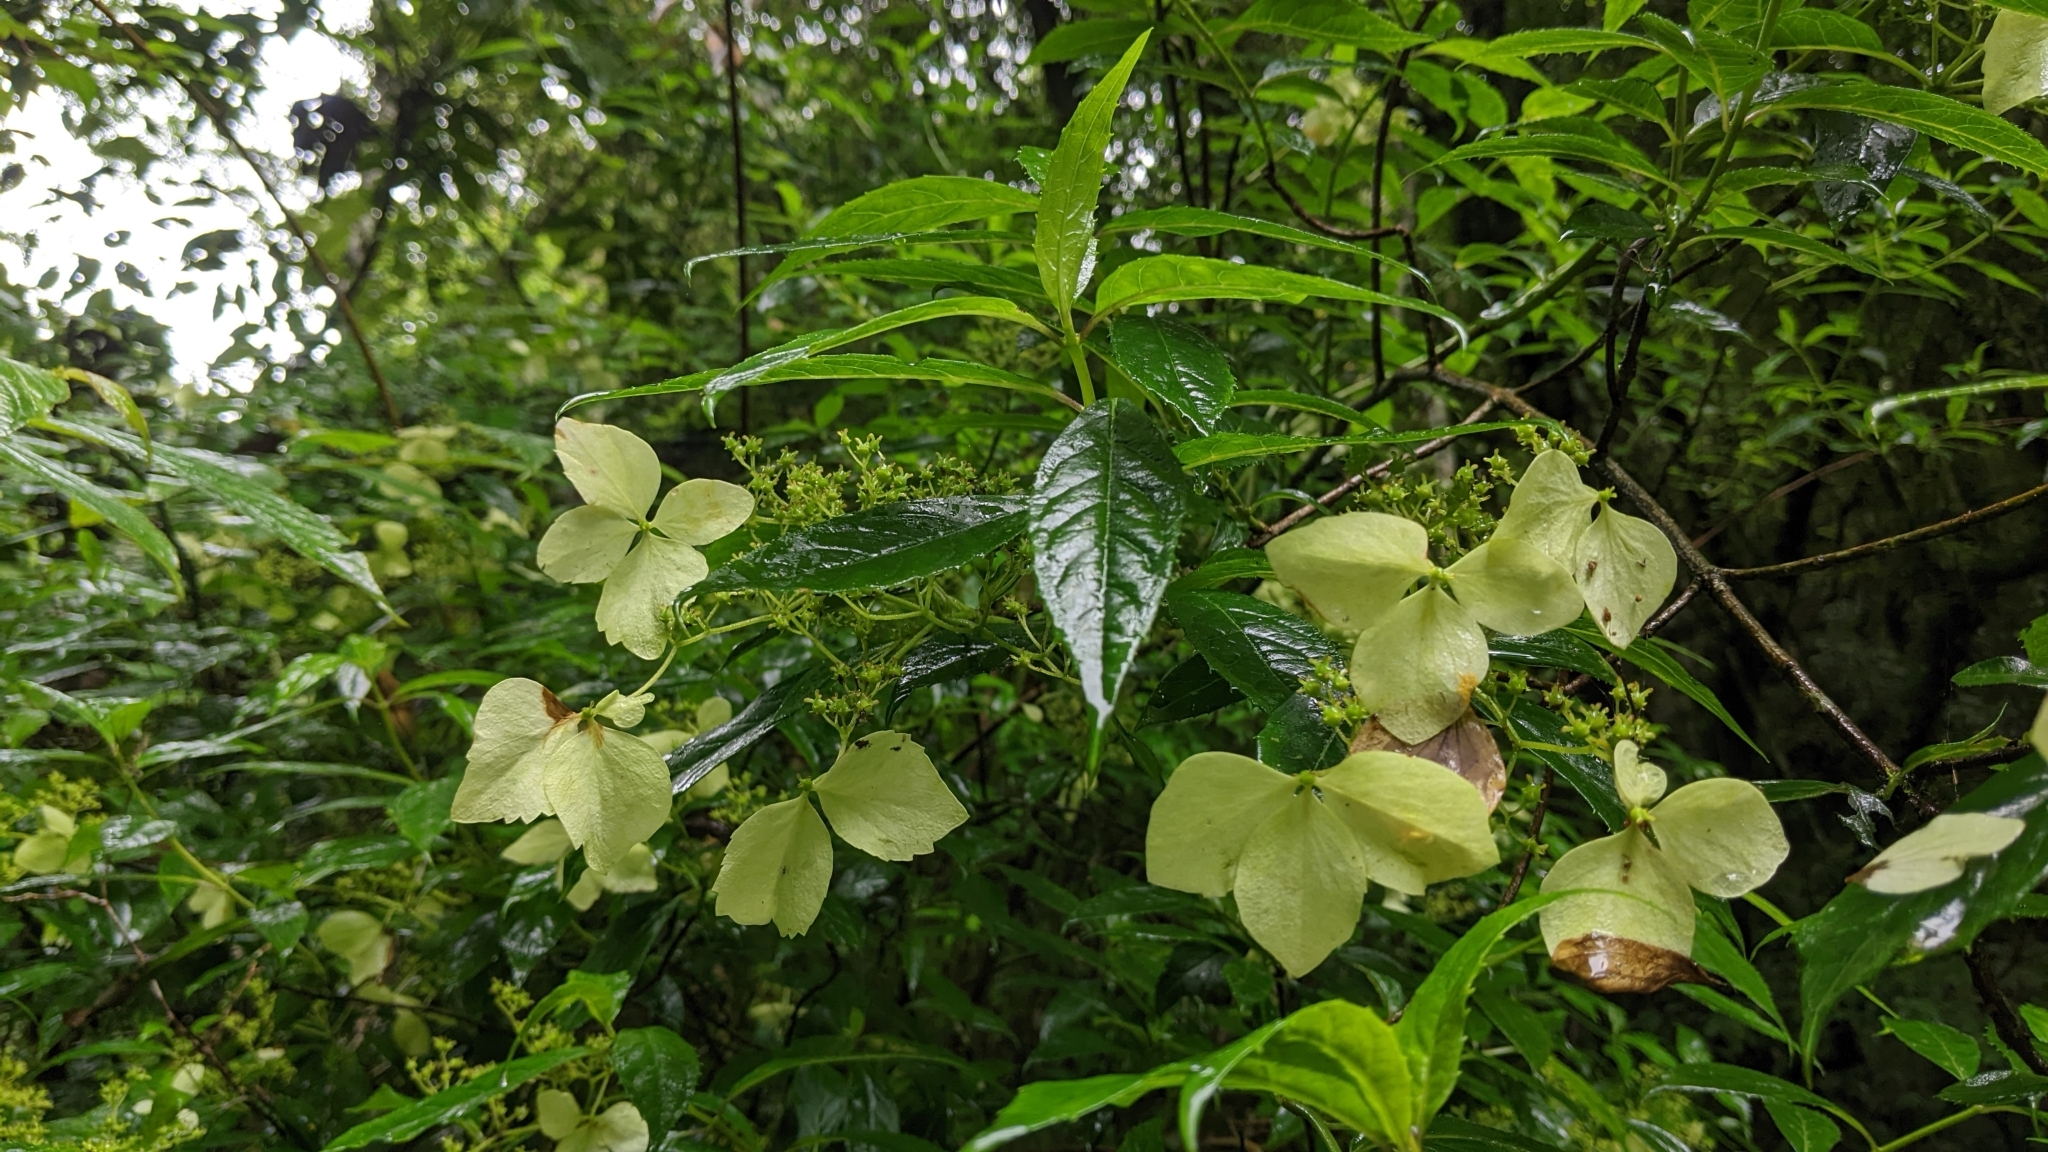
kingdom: Plantae
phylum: Tracheophyta
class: Magnoliopsida
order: Cornales
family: Hydrangeaceae
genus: Hydrangea
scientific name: Hydrangea chinensis
